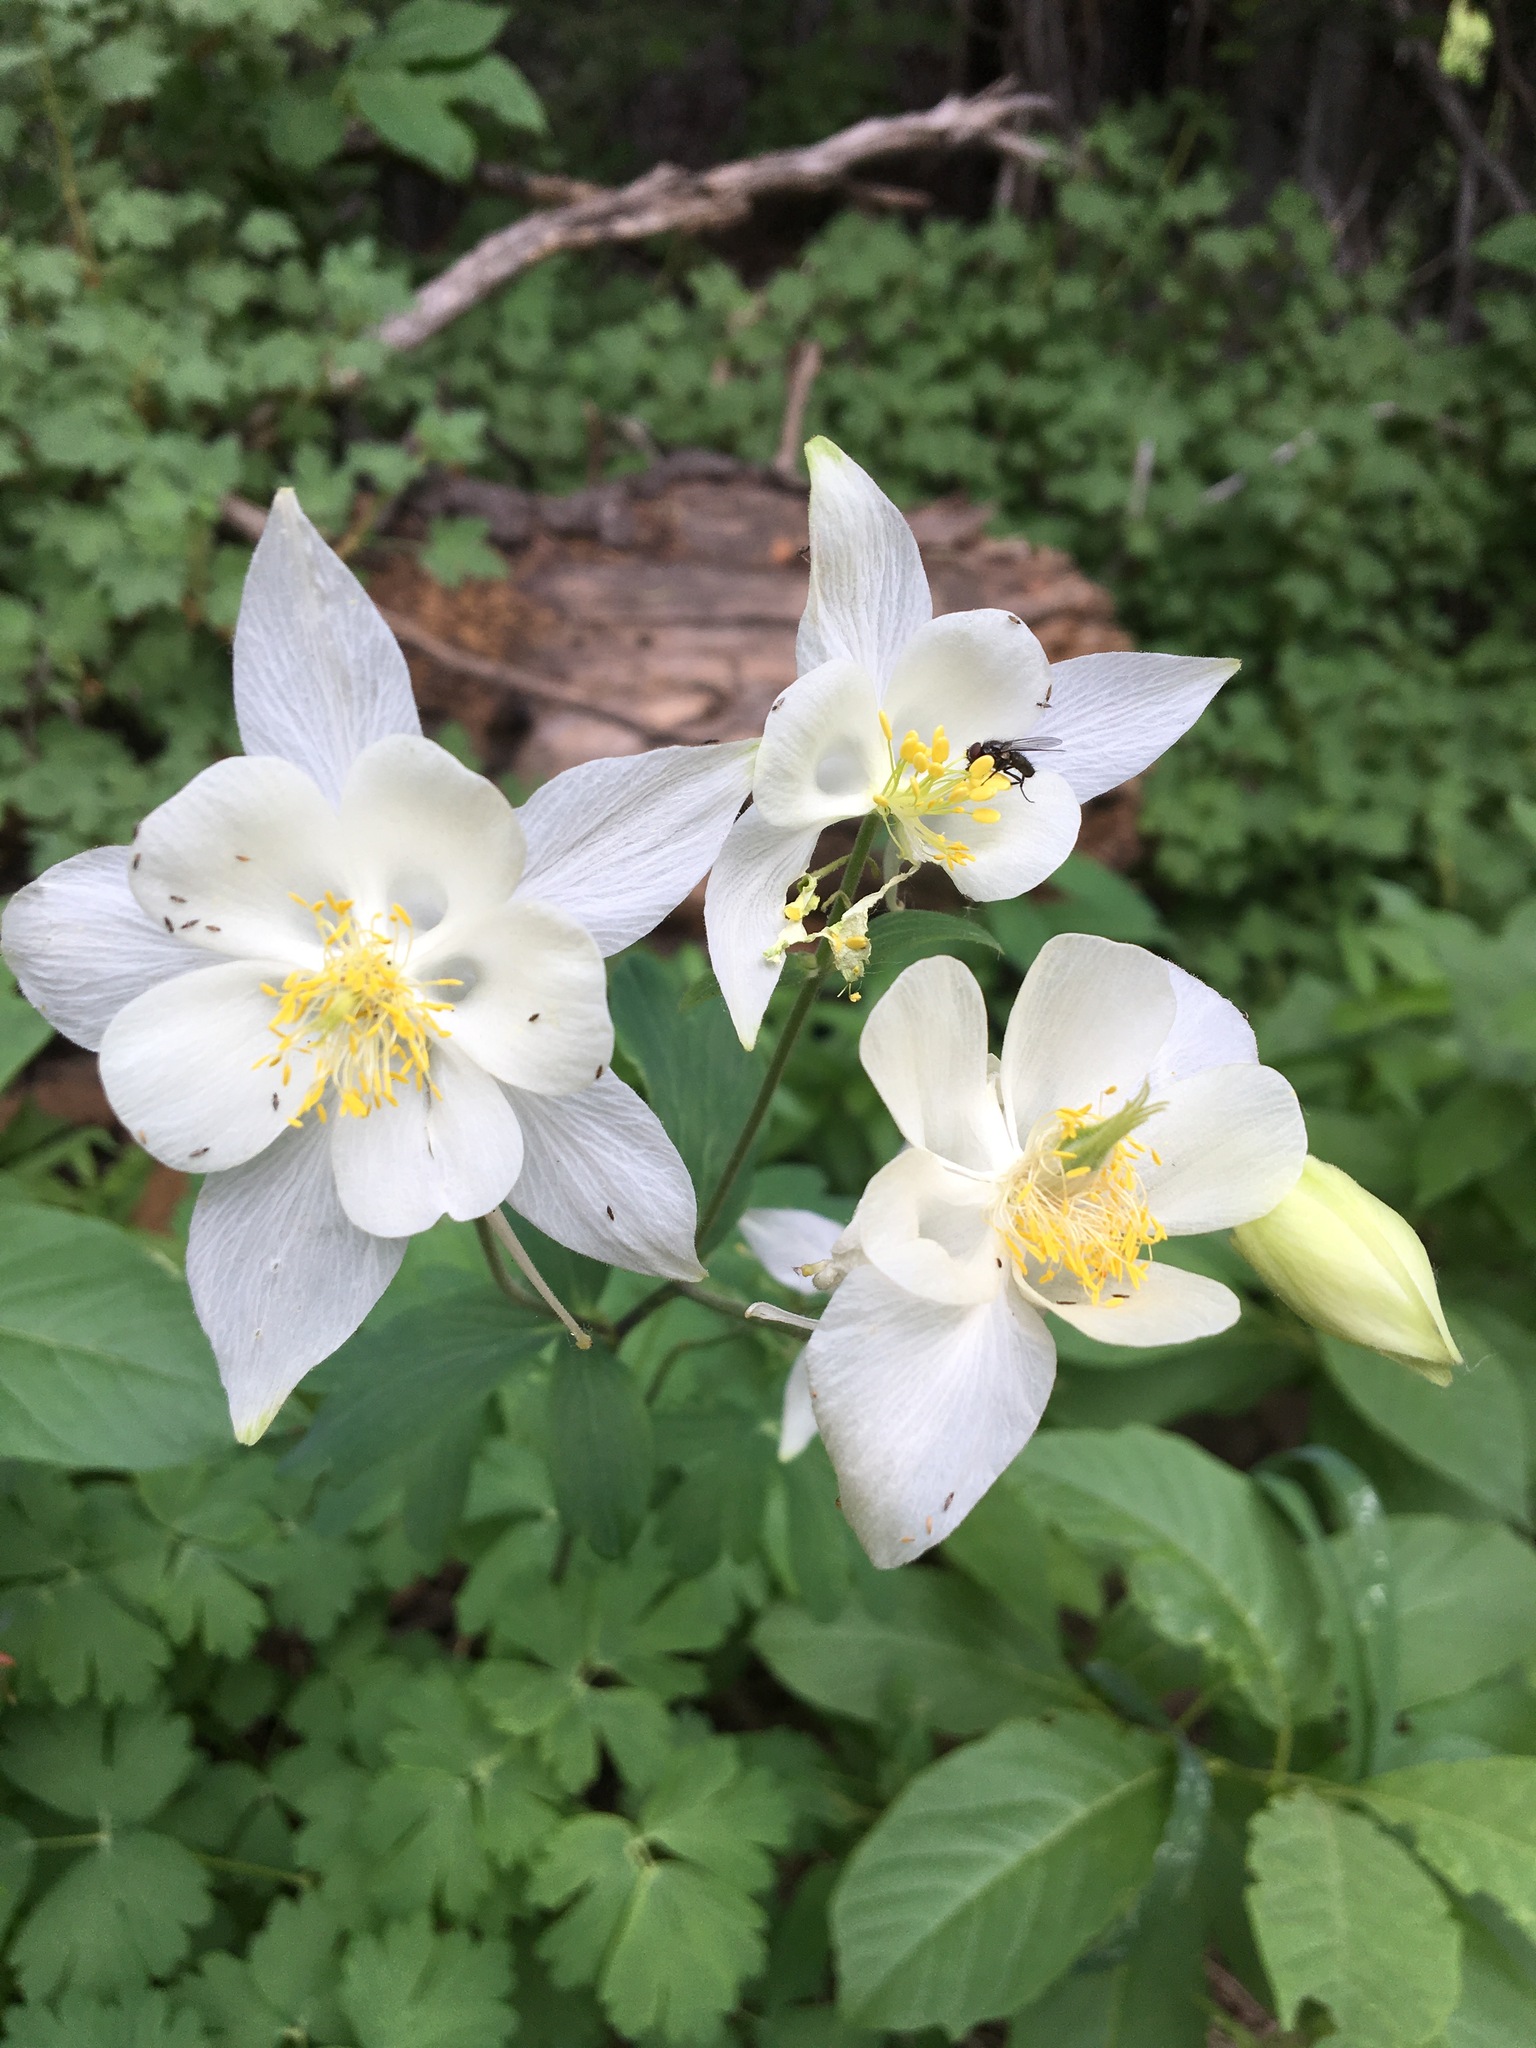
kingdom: Plantae
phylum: Tracheophyta
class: Magnoliopsida
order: Ranunculales
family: Ranunculaceae
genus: Aquilegia
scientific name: Aquilegia coerulea
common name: Rocky mountain columbine
